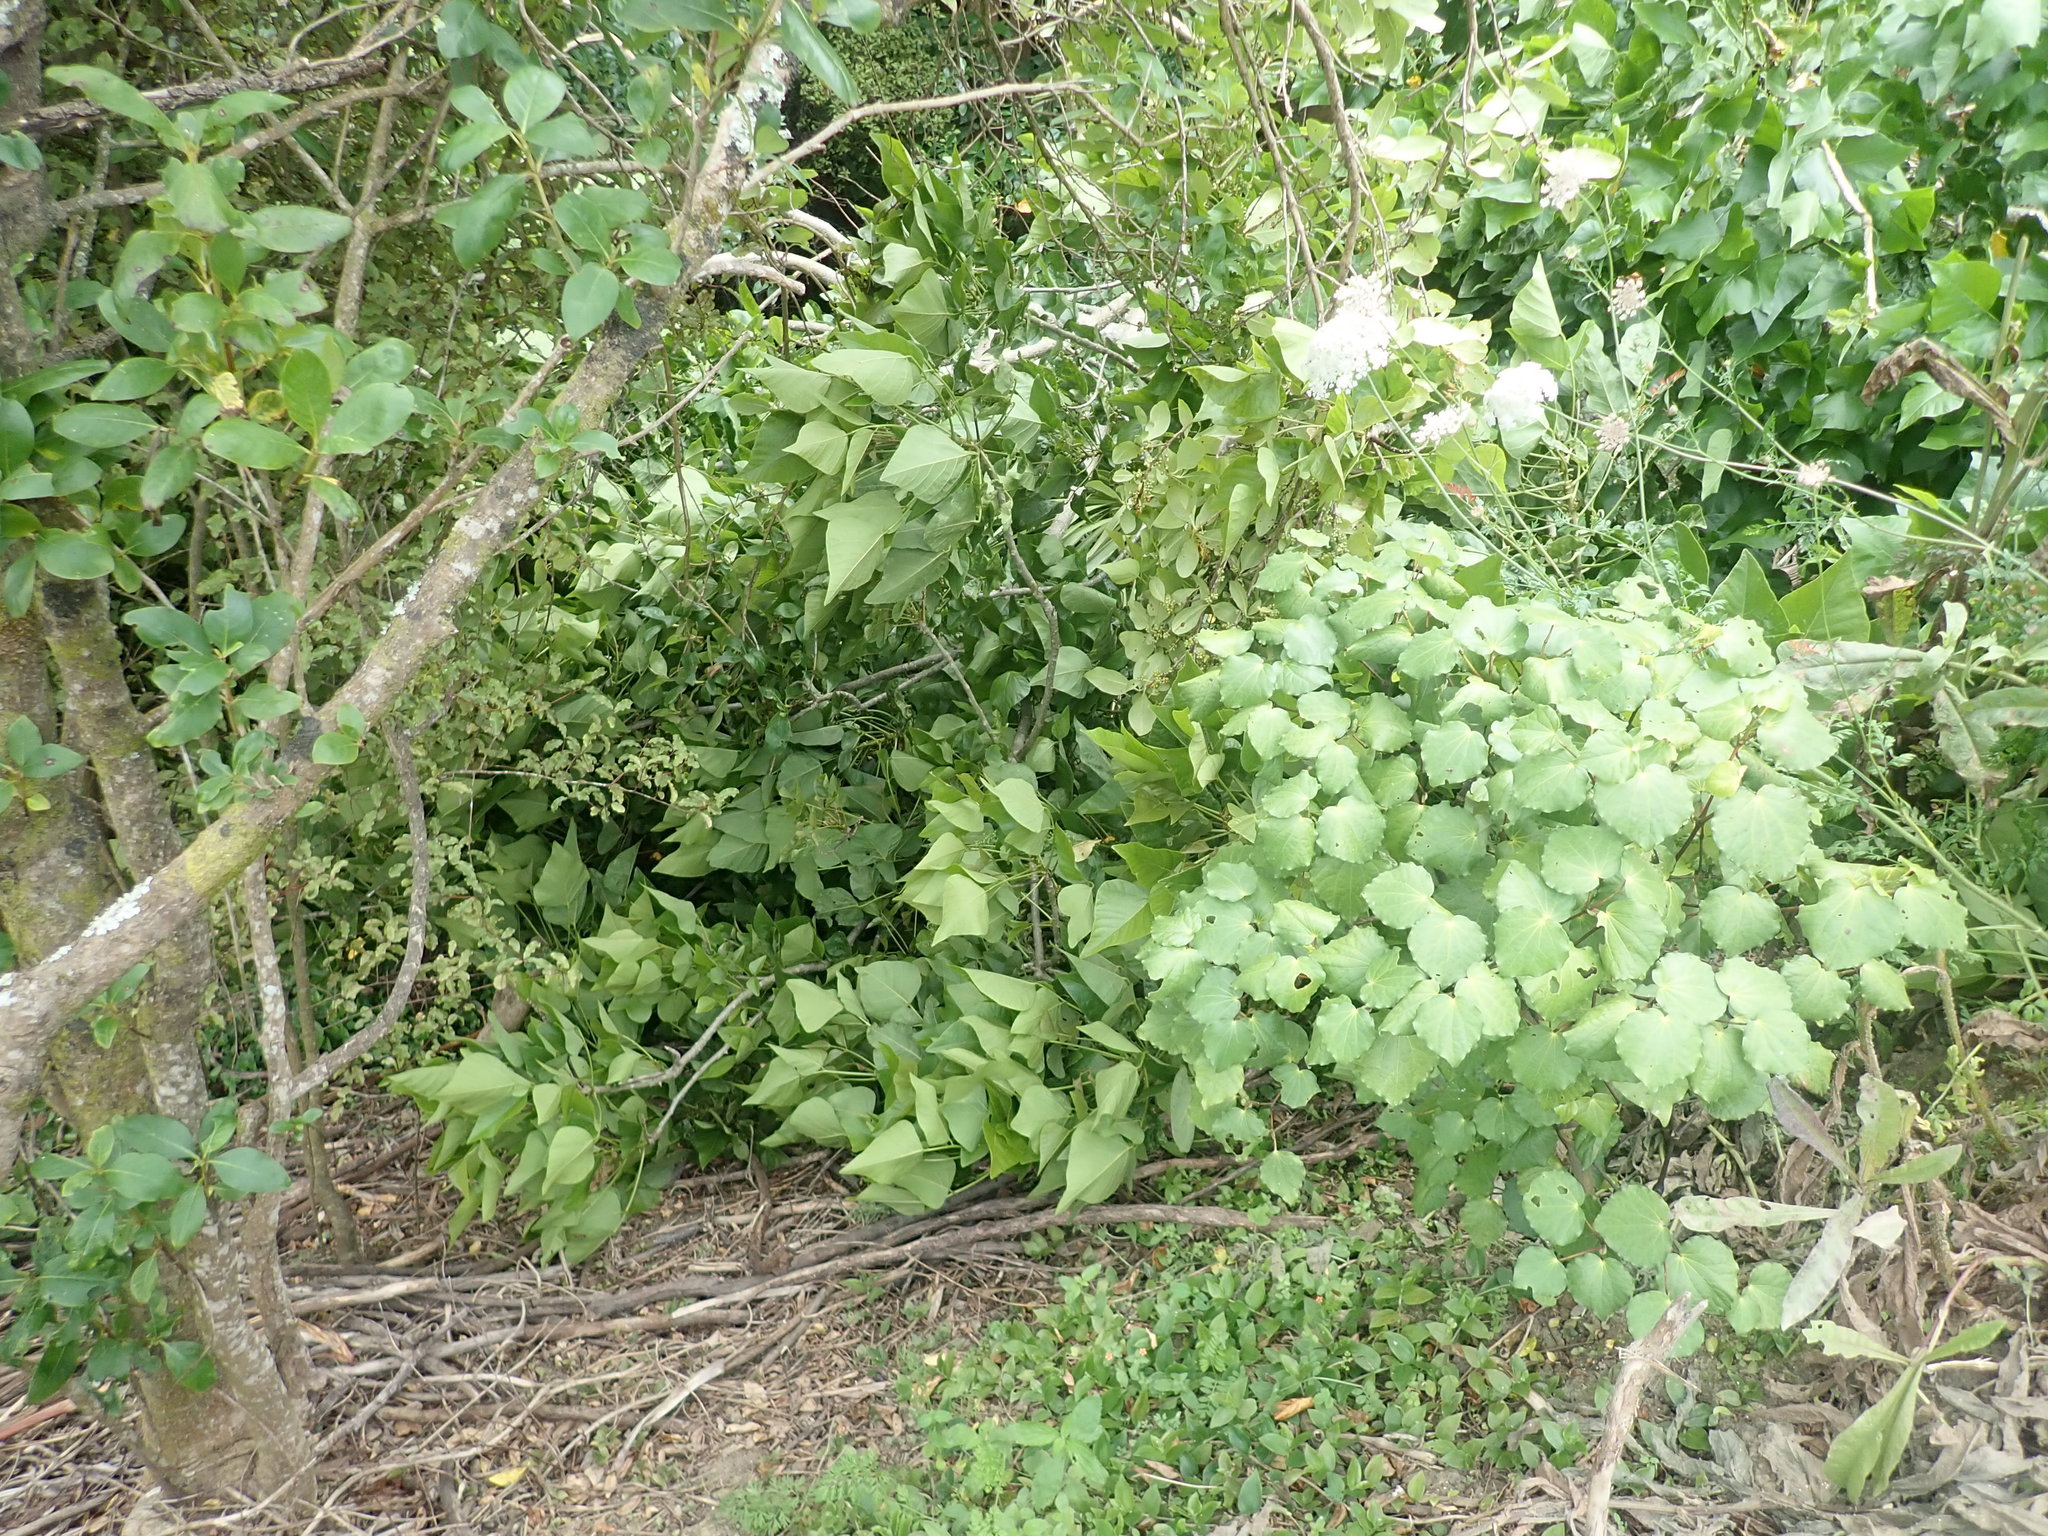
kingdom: Plantae
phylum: Tracheophyta
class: Magnoliopsida
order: Gentianales
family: Rubiaceae
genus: Coprosma
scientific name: Coprosma robusta
